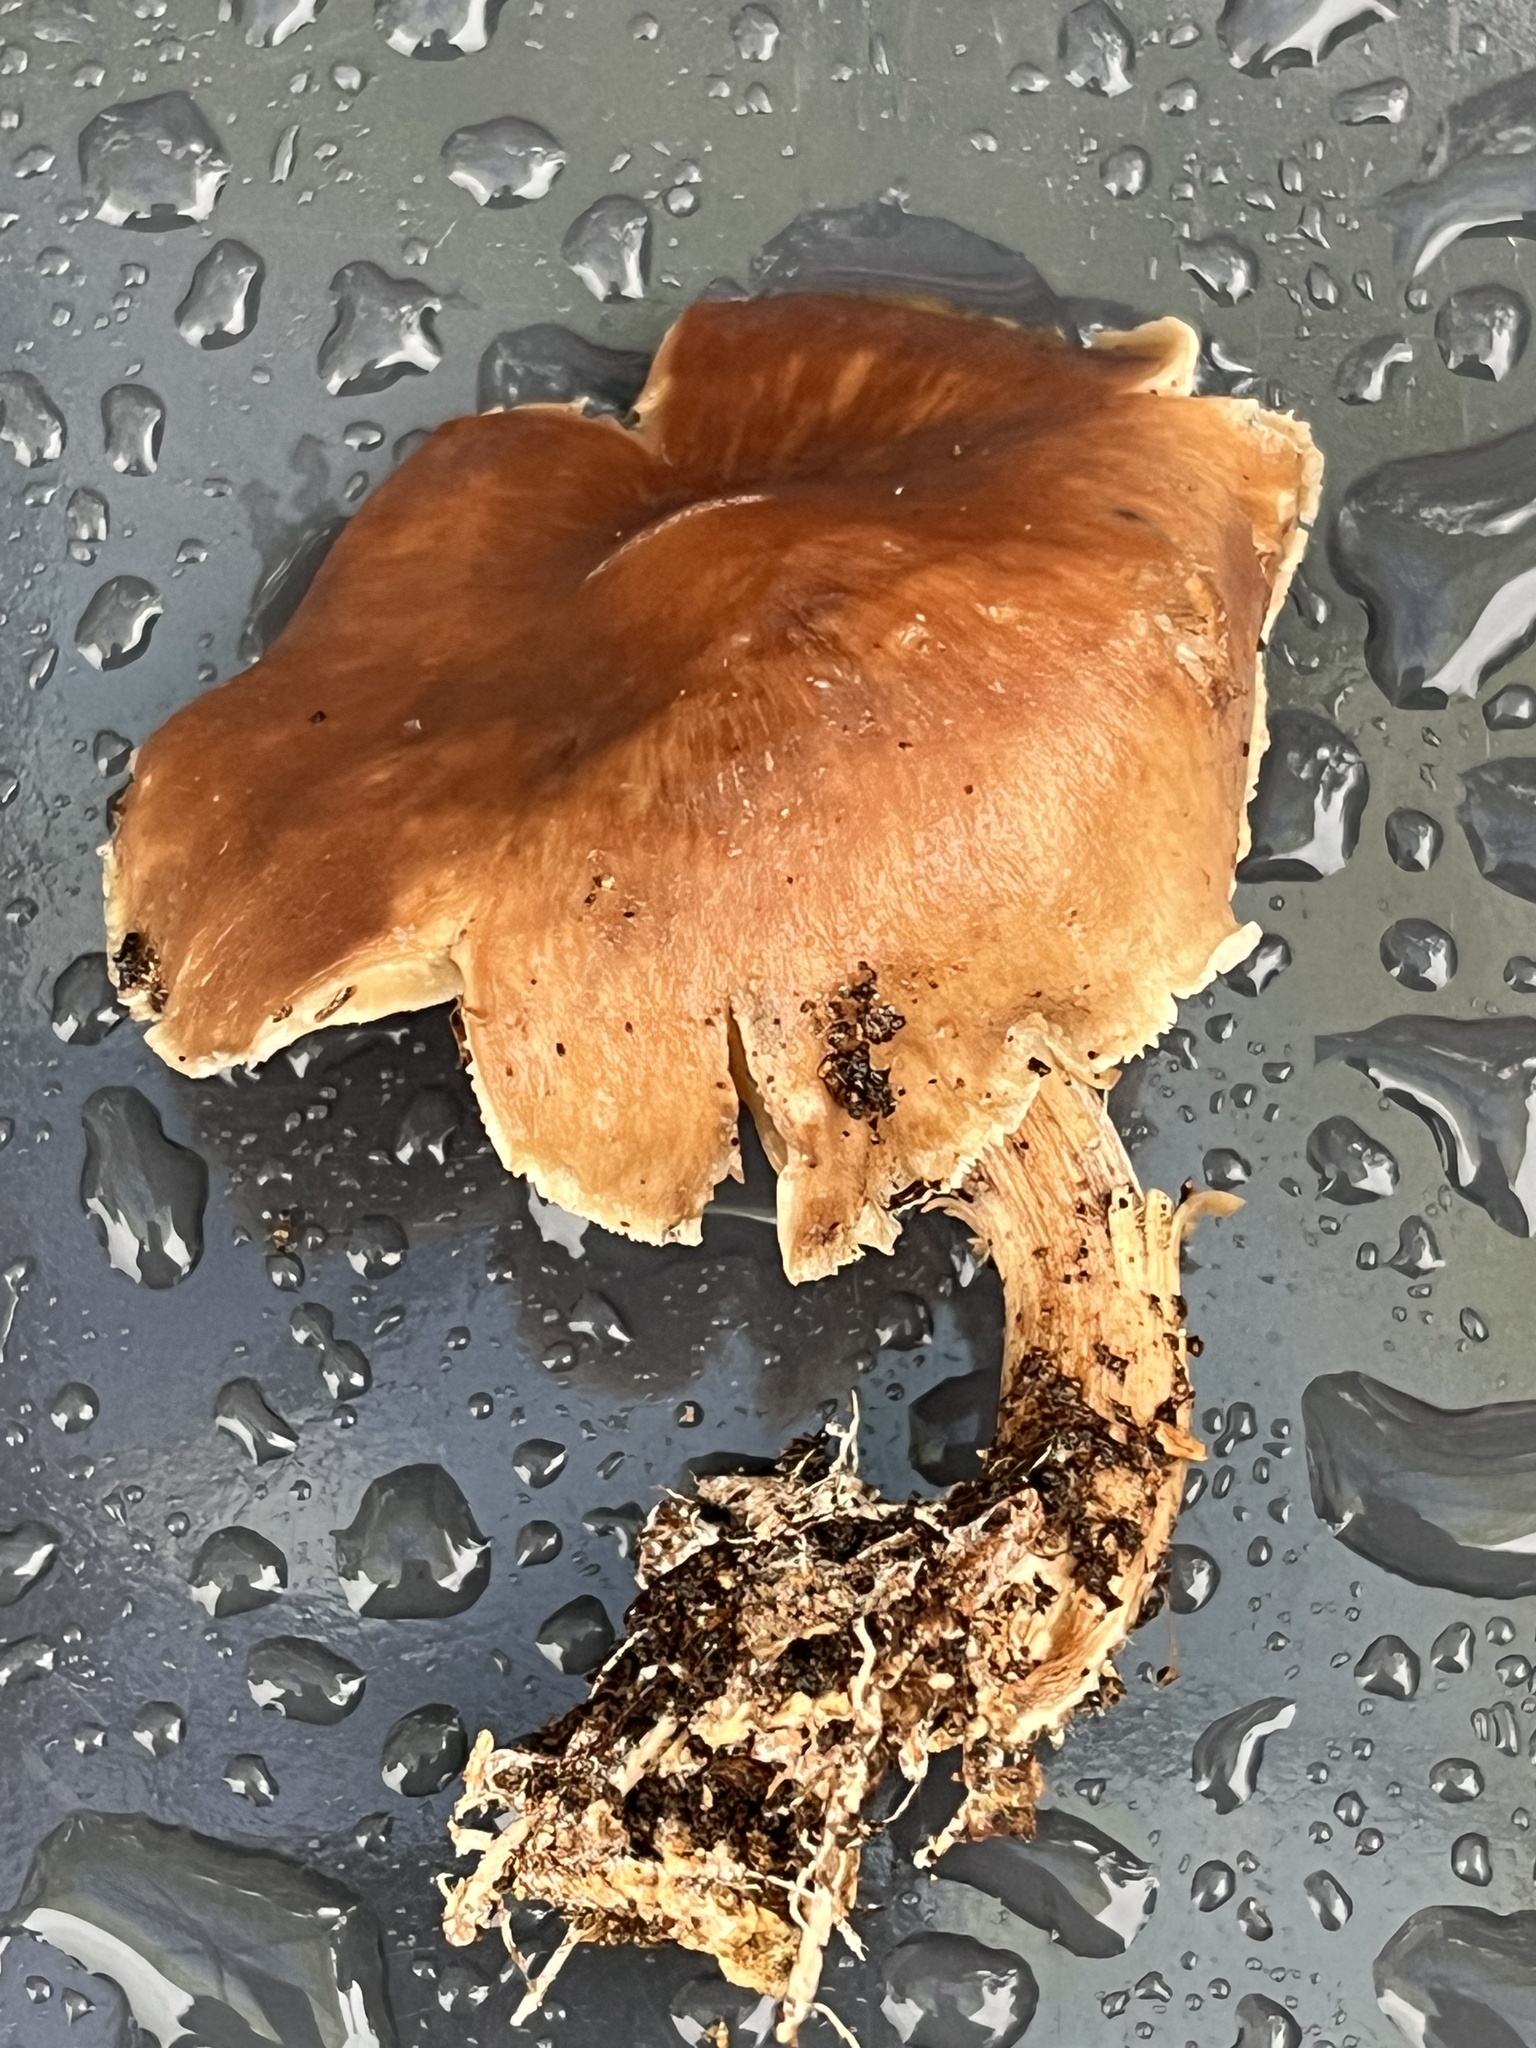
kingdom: Fungi
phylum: Basidiomycota
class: Agaricomycetes
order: Agaricales
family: Omphalotaceae
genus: Collybiopsis
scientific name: Collybiopsis luxurians
